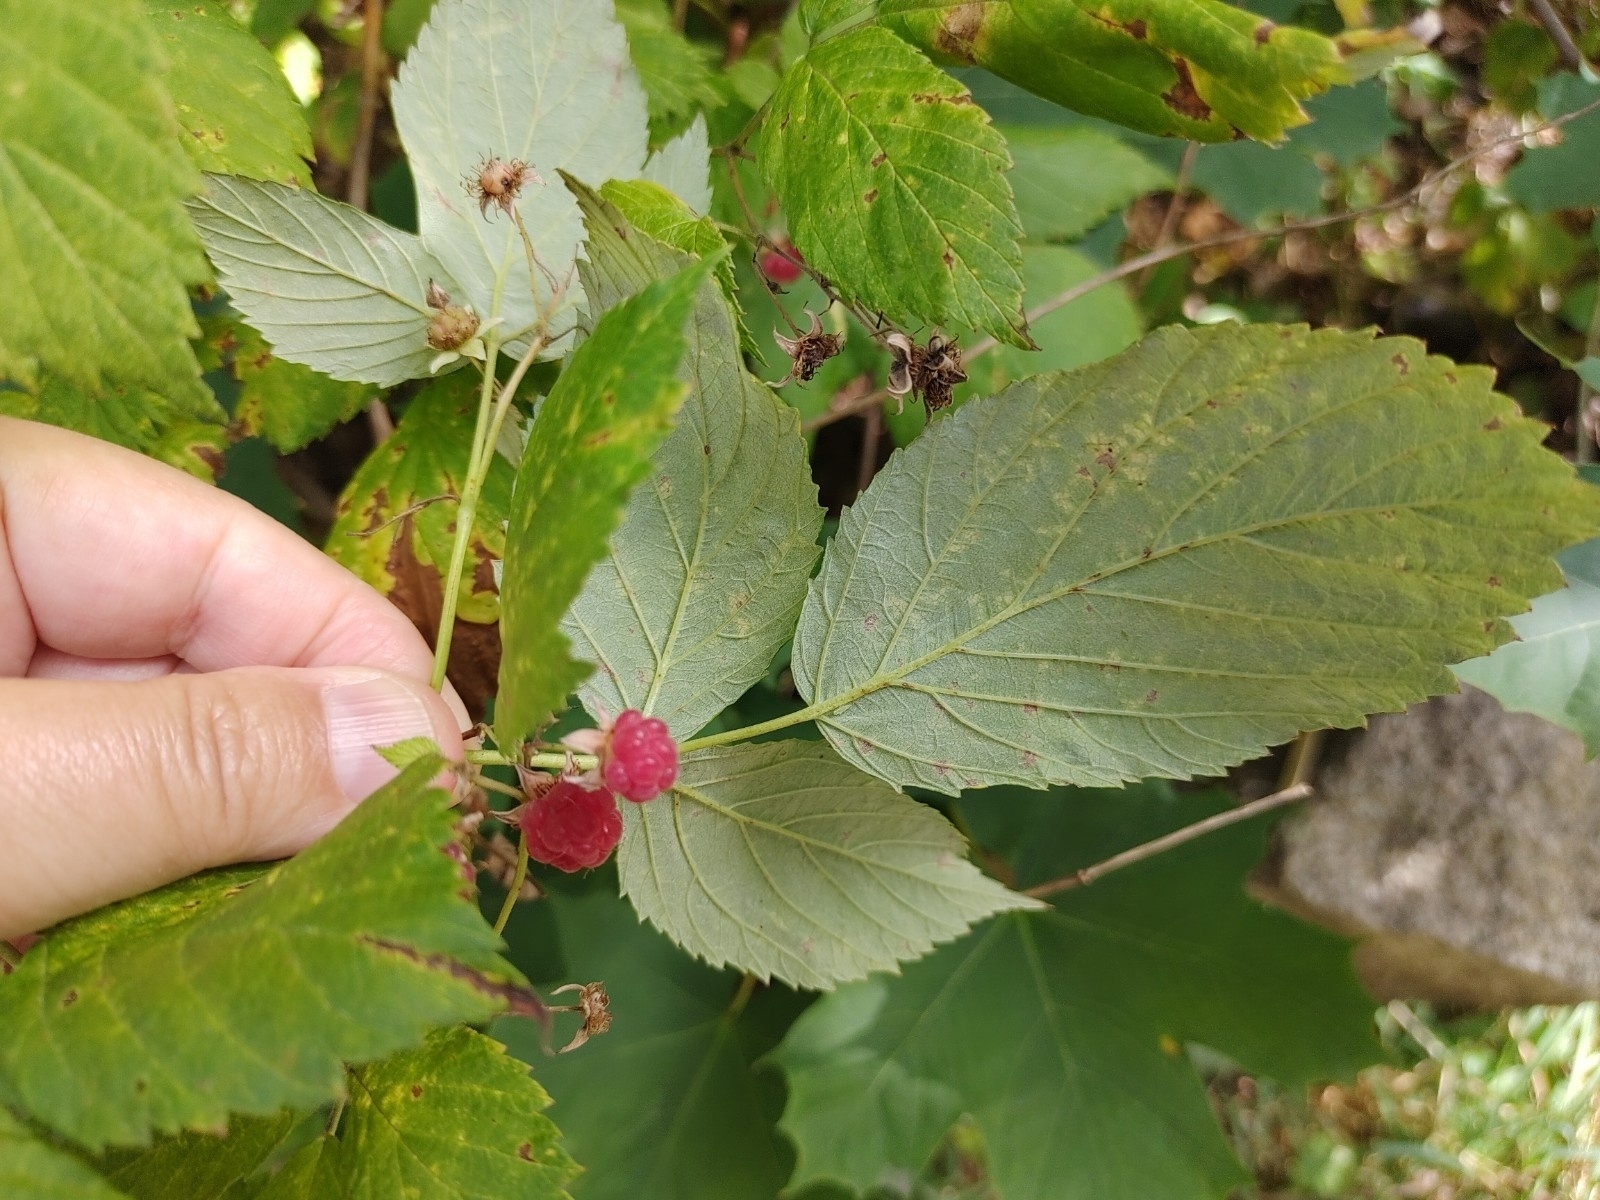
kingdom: Plantae
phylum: Tracheophyta
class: Magnoliopsida
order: Rosales
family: Rosaceae
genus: Rubus
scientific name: Rubus idaeus
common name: Raspberry
